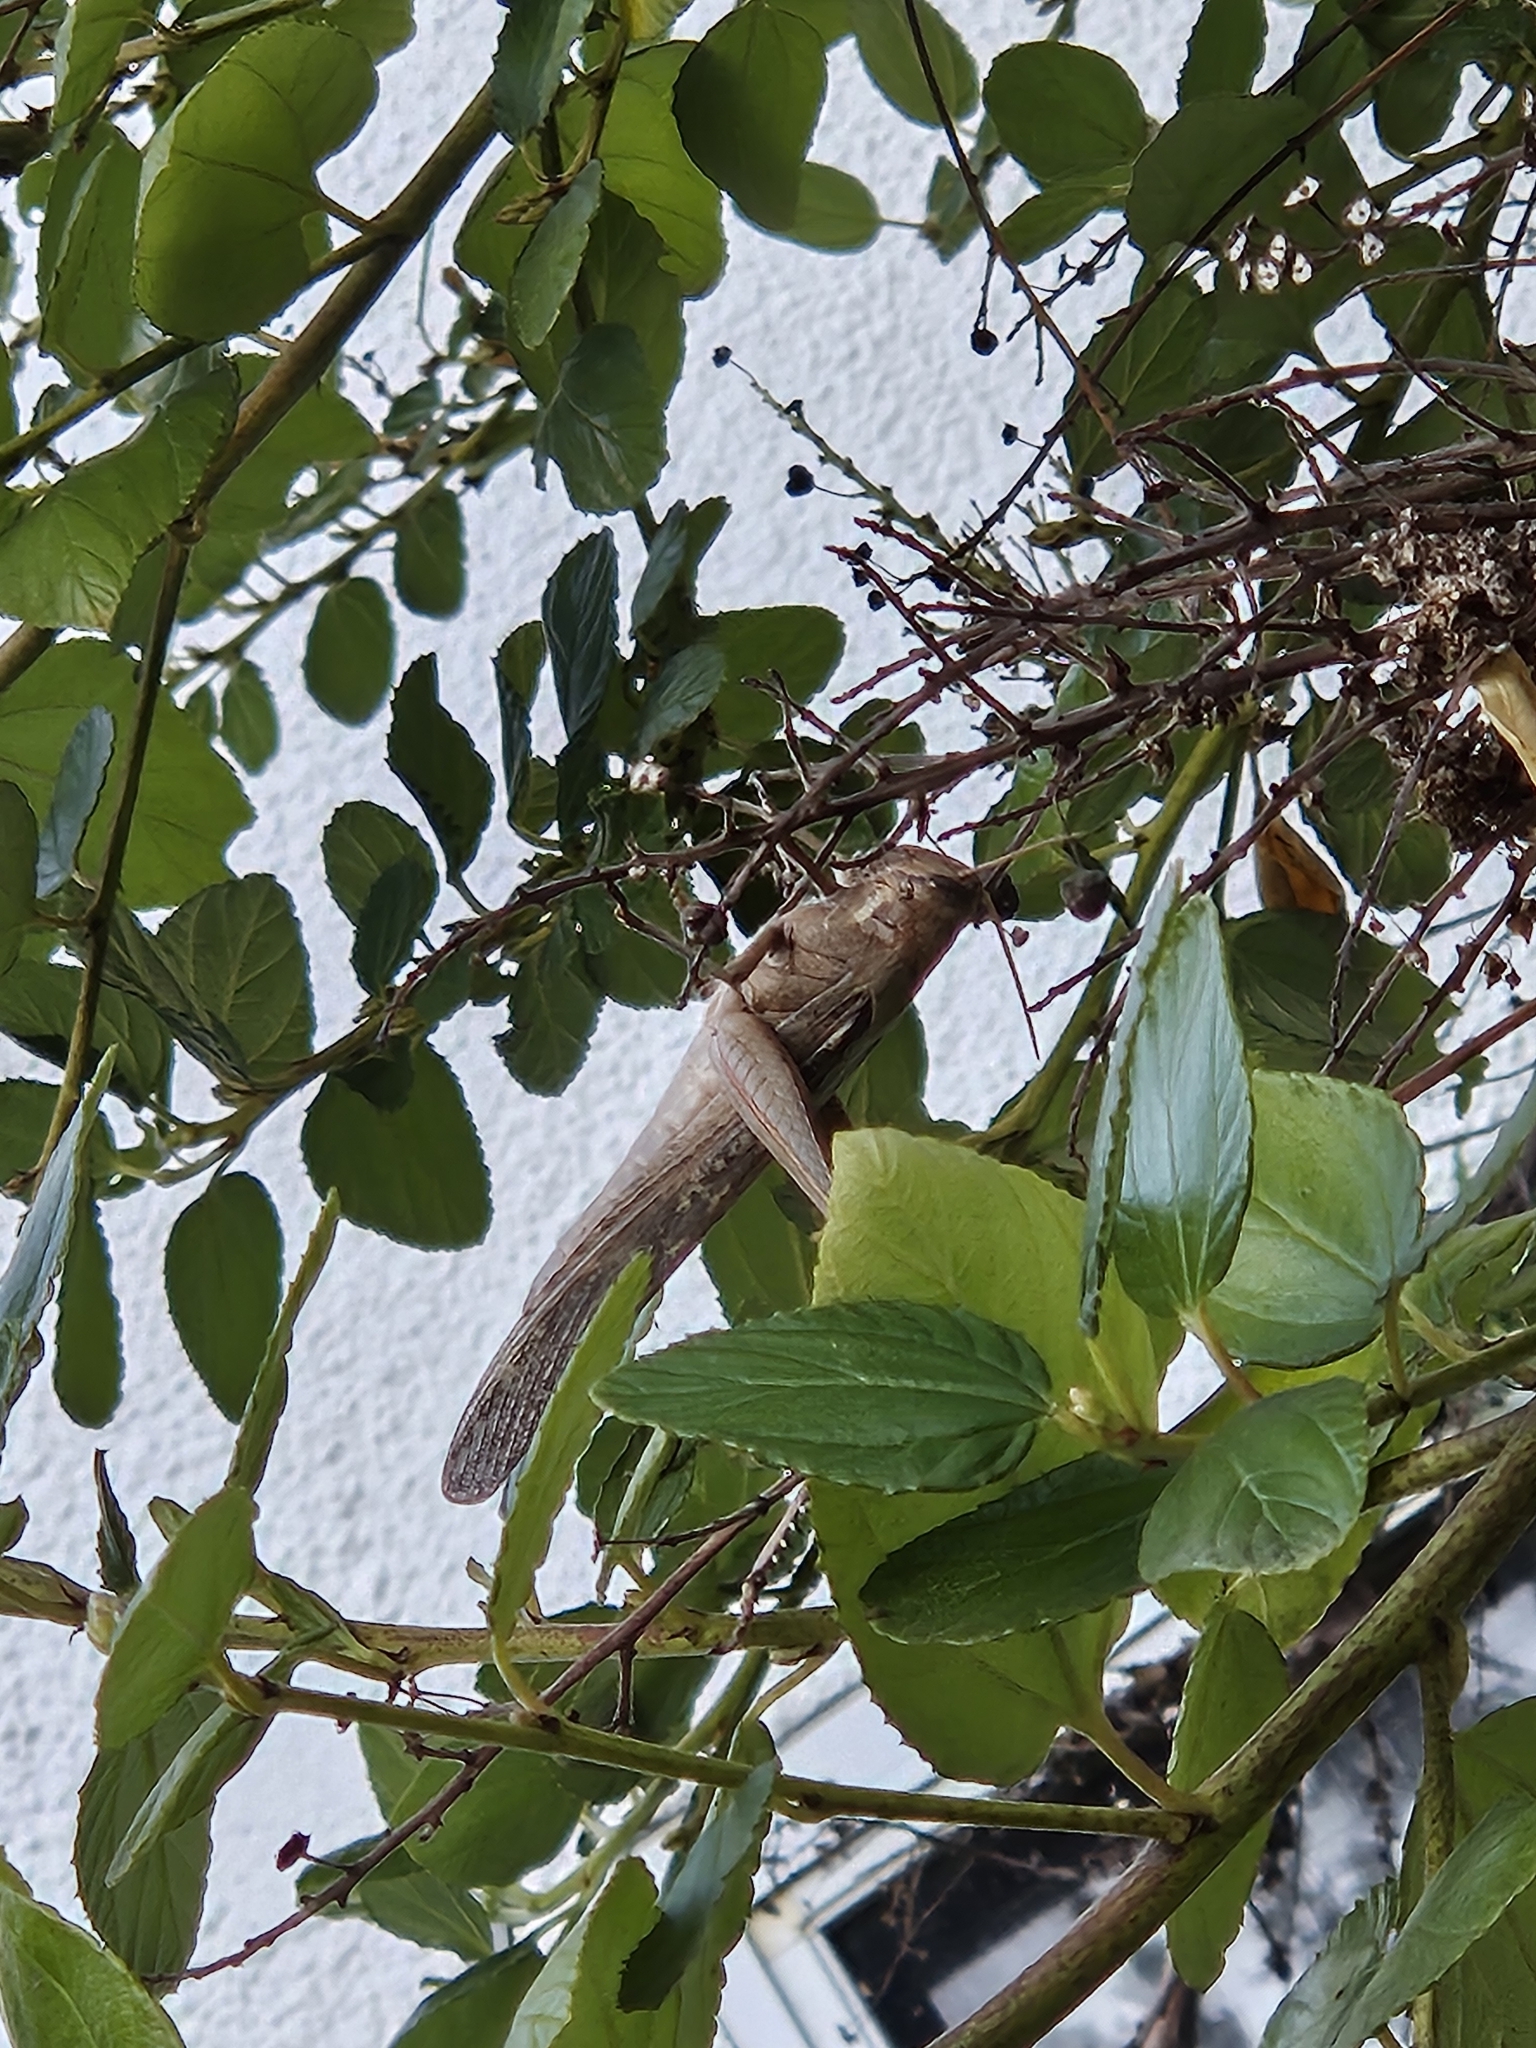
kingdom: Animalia
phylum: Arthropoda
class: Insecta
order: Orthoptera
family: Acrididae
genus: Schistocerca
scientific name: Schistocerca nitens
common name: Vagrant grasshopper
